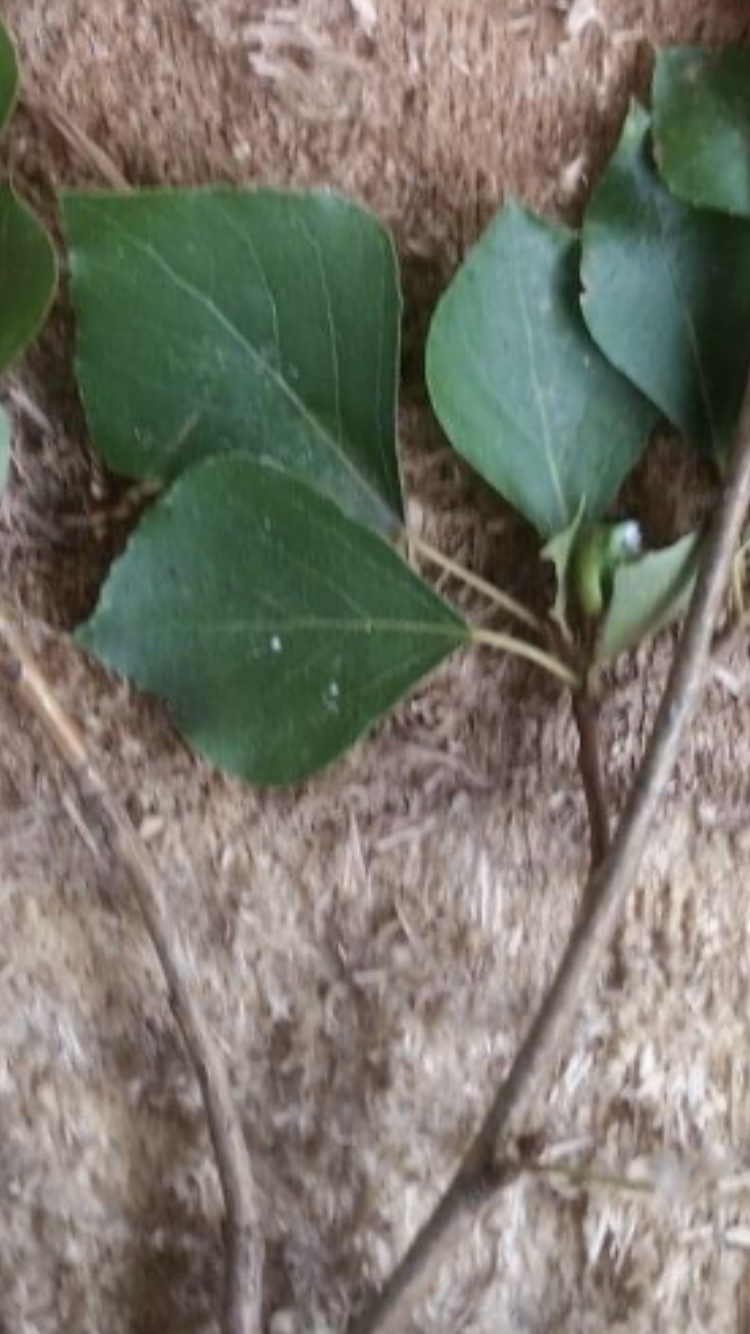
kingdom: Plantae
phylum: Tracheophyta
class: Magnoliopsida
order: Malpighiales
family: Salicaceae
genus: Populus
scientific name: Populus nigra
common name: Black poplar
